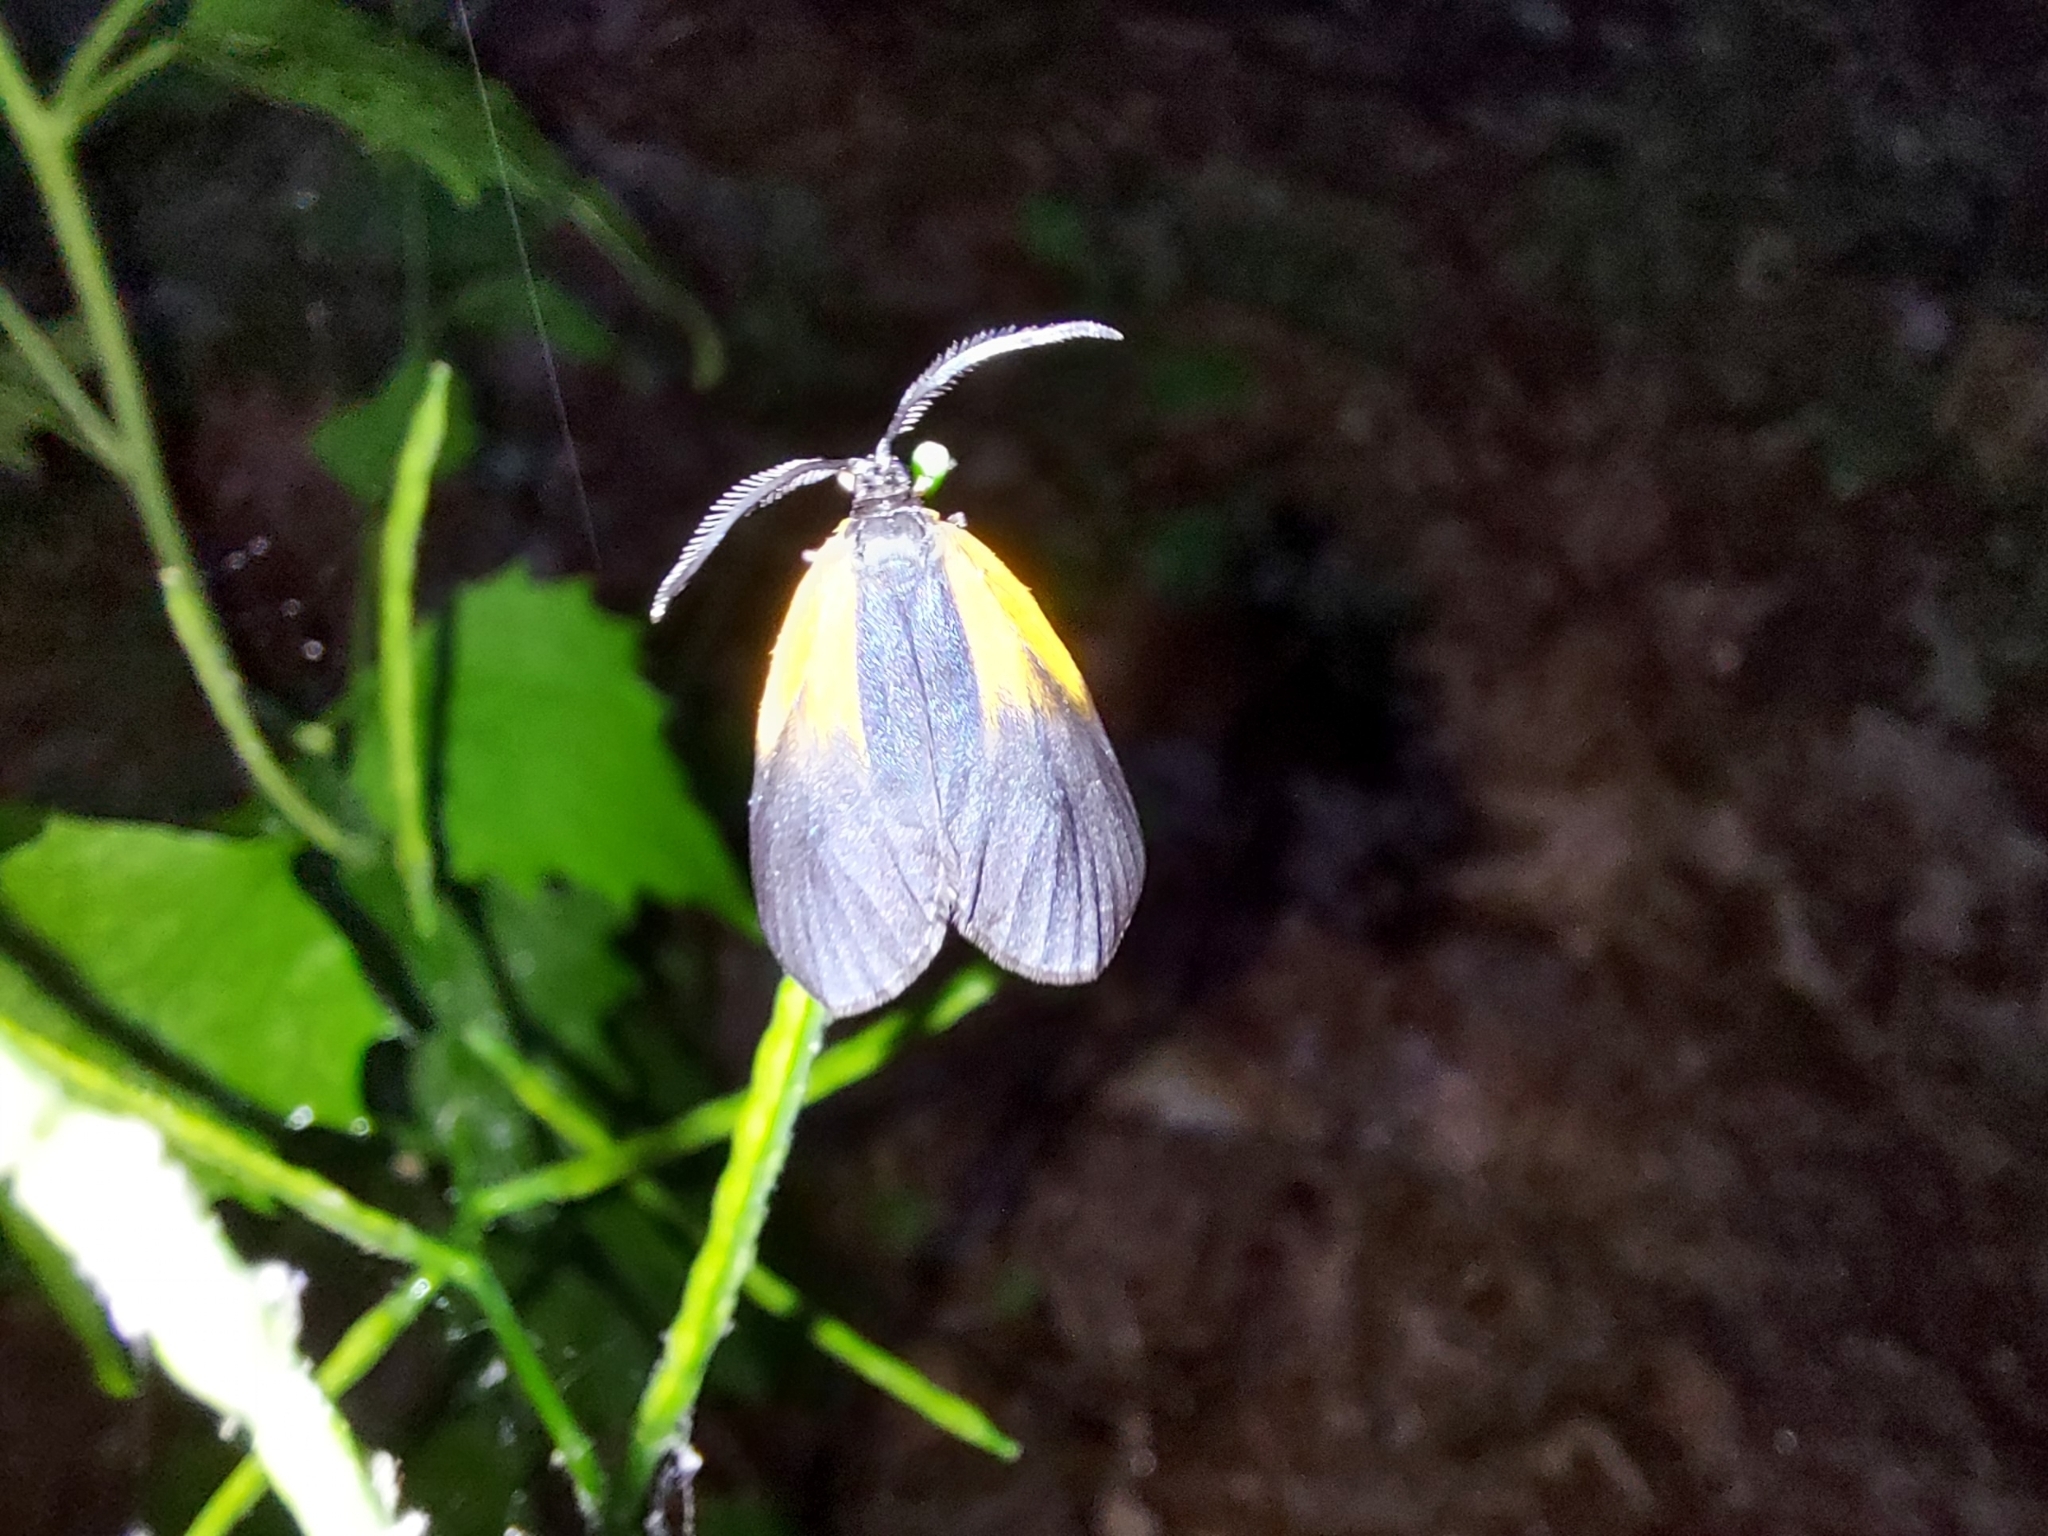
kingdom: Animalia
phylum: Arthropoda
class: Insecta
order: Lepidoptera
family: Zygaenidae
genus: Malthaca
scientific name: Malthaca dimidiata
